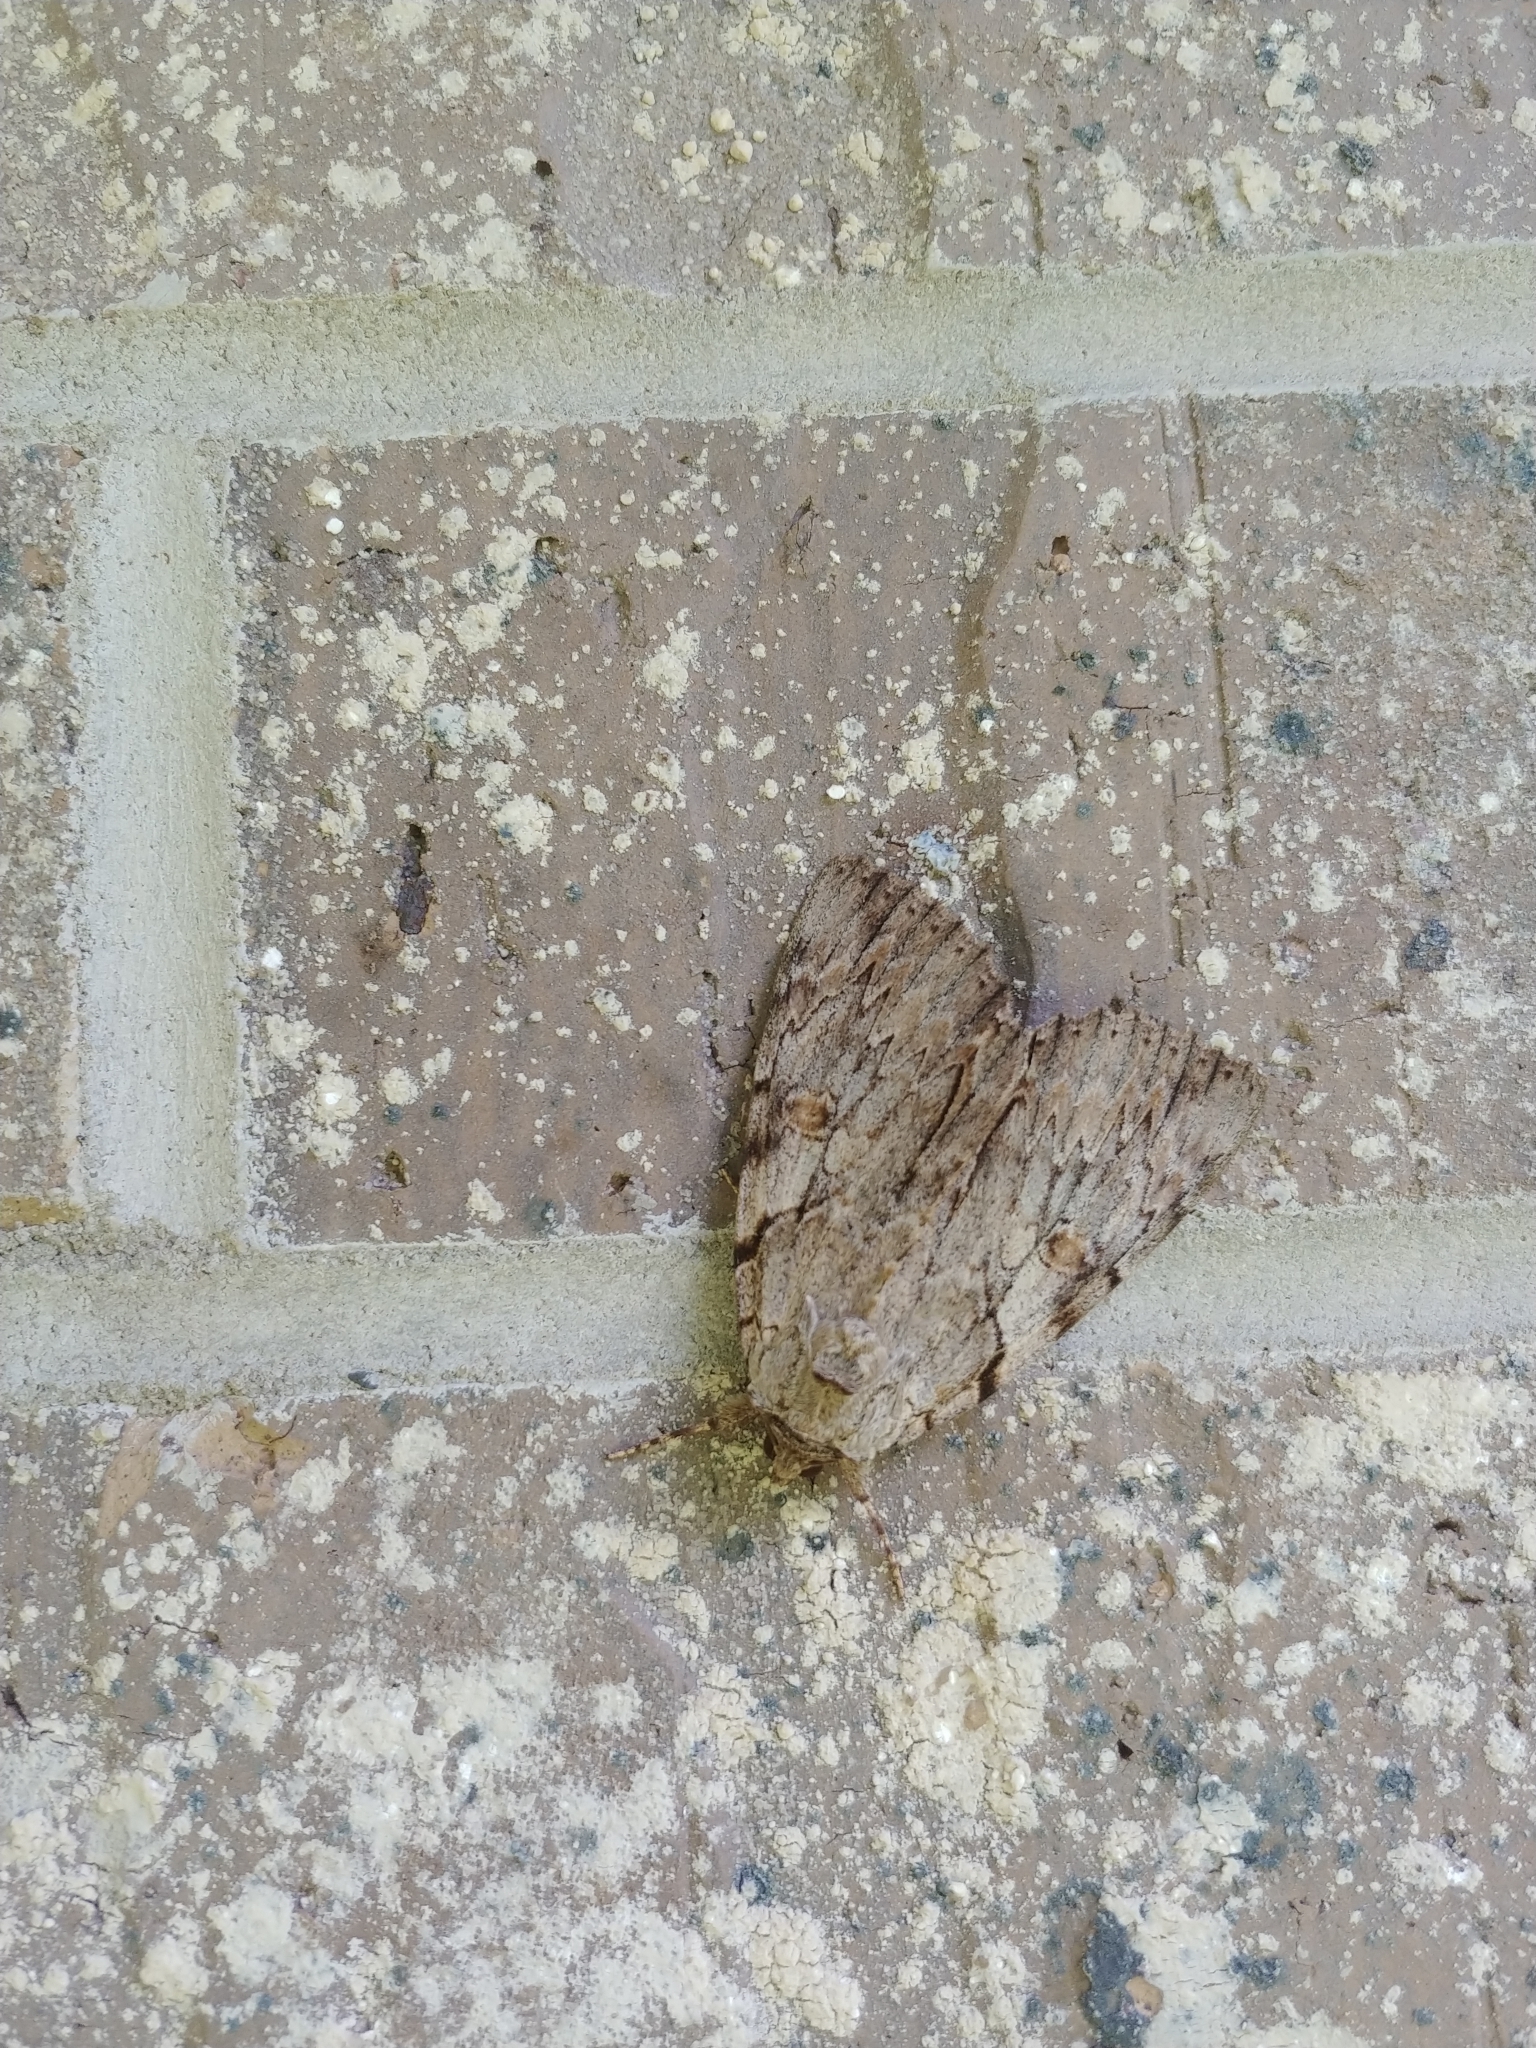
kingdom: Animalia
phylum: Arthropoda
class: Insecta
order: Lepidoptera
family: Erebidae
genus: Catocala
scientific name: Catocala subnata
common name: Youthful underwing
